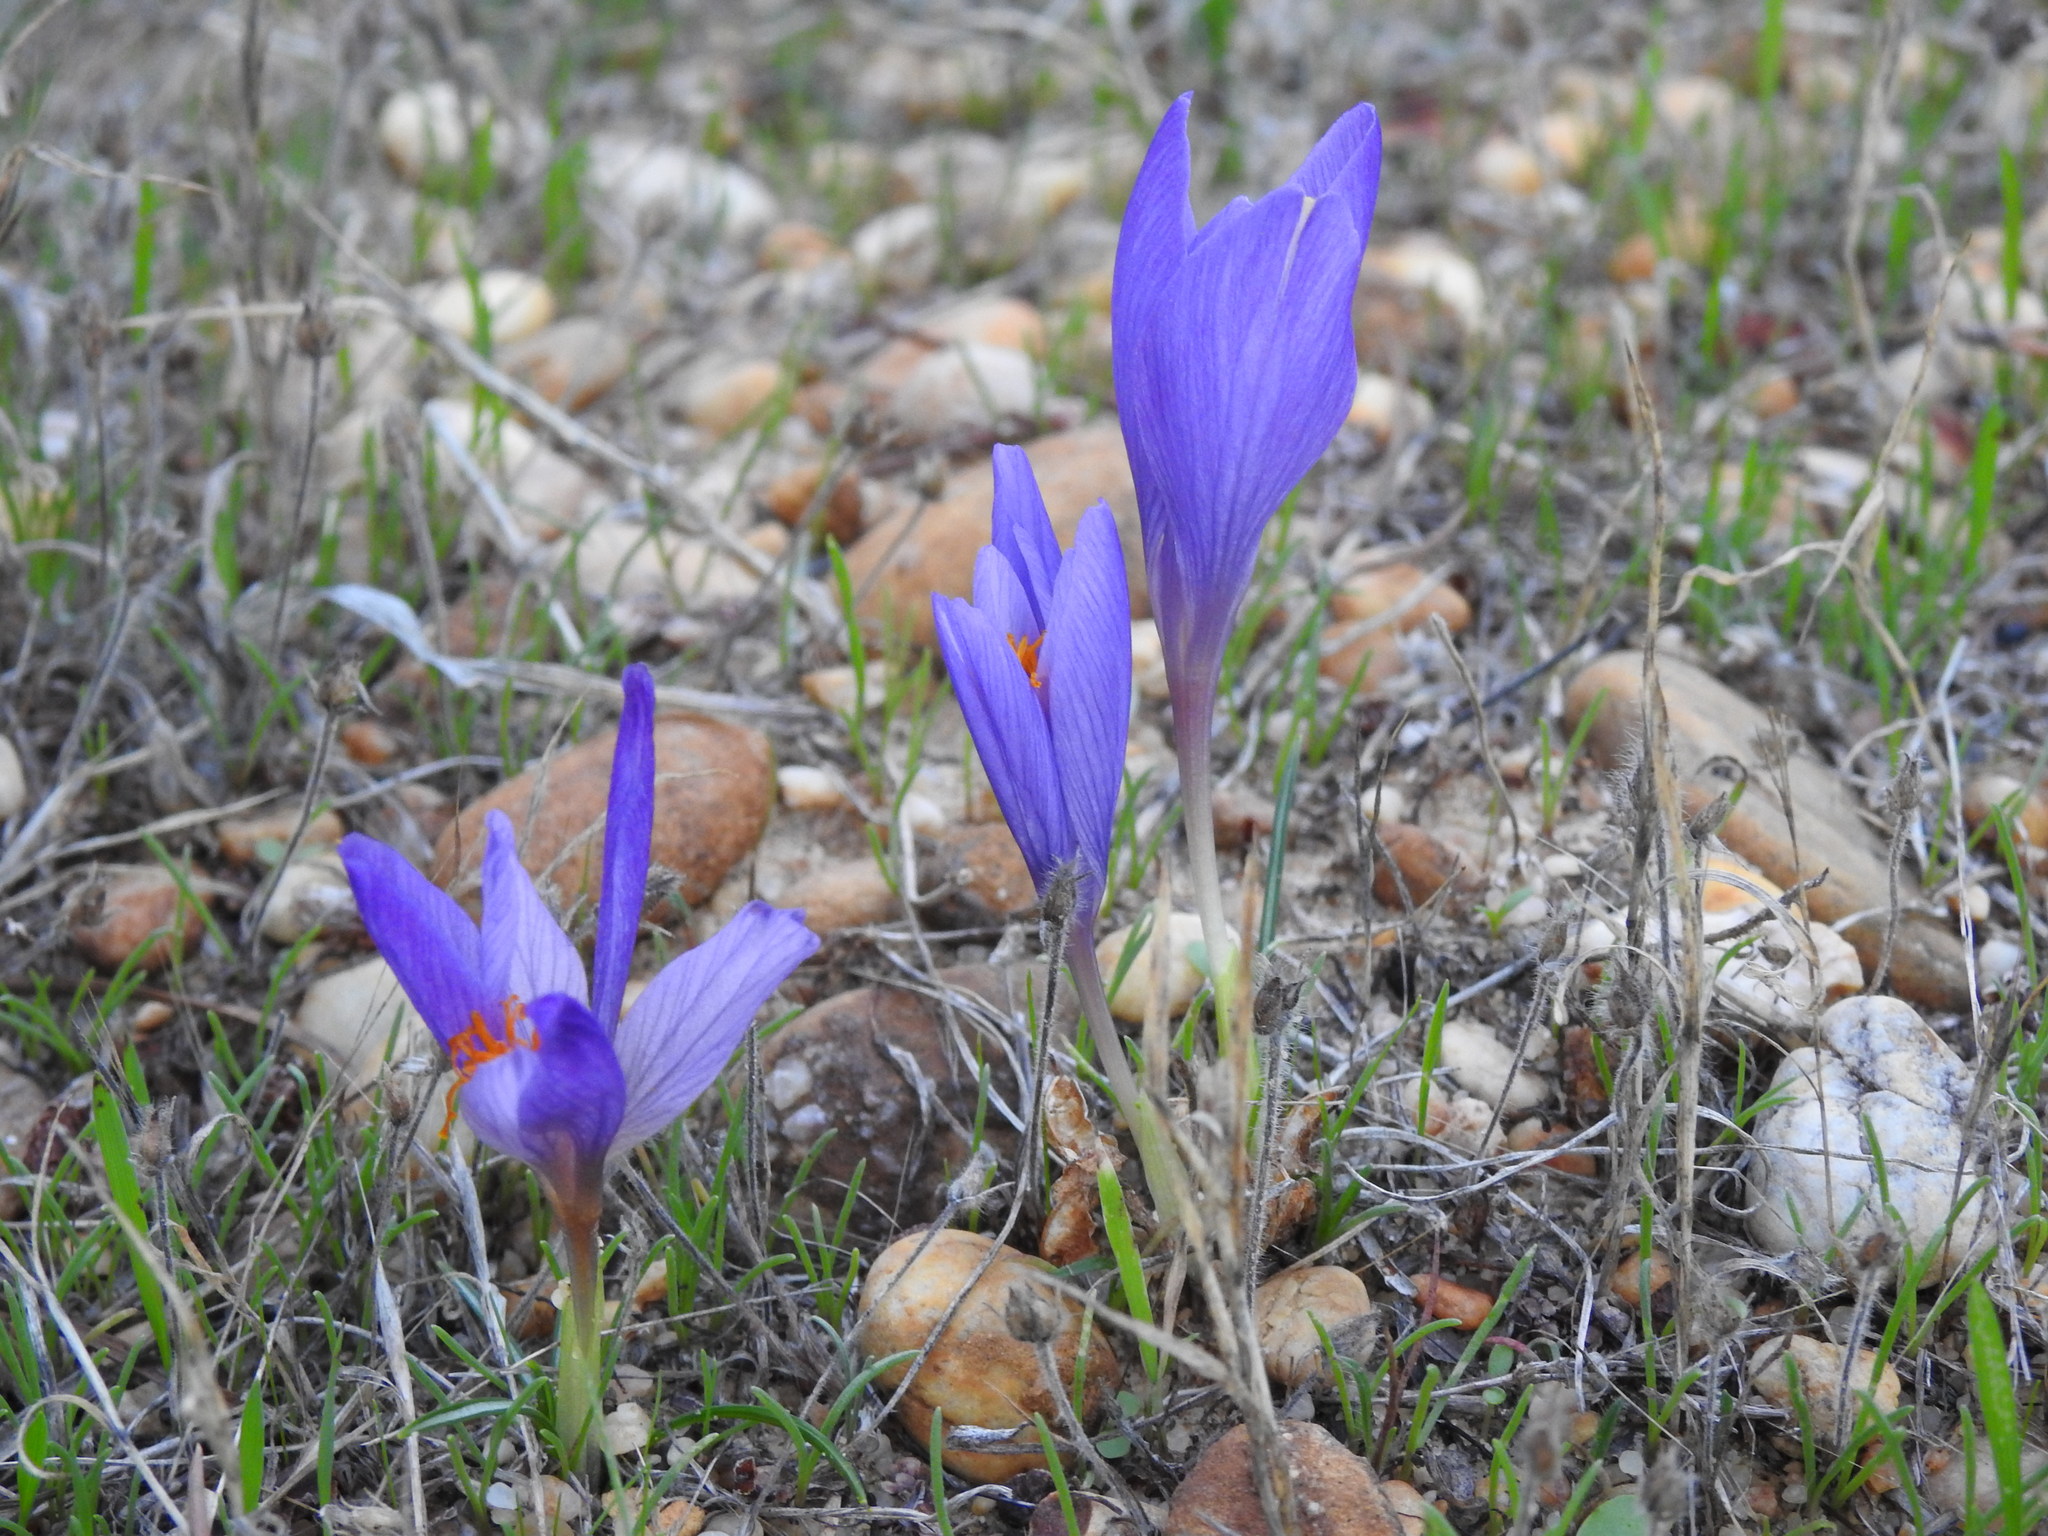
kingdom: Plantae
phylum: Tracheophyta
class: Liliopsida
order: Asparagales
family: Iridaceae
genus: Crocus
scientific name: Crocus serotinus
